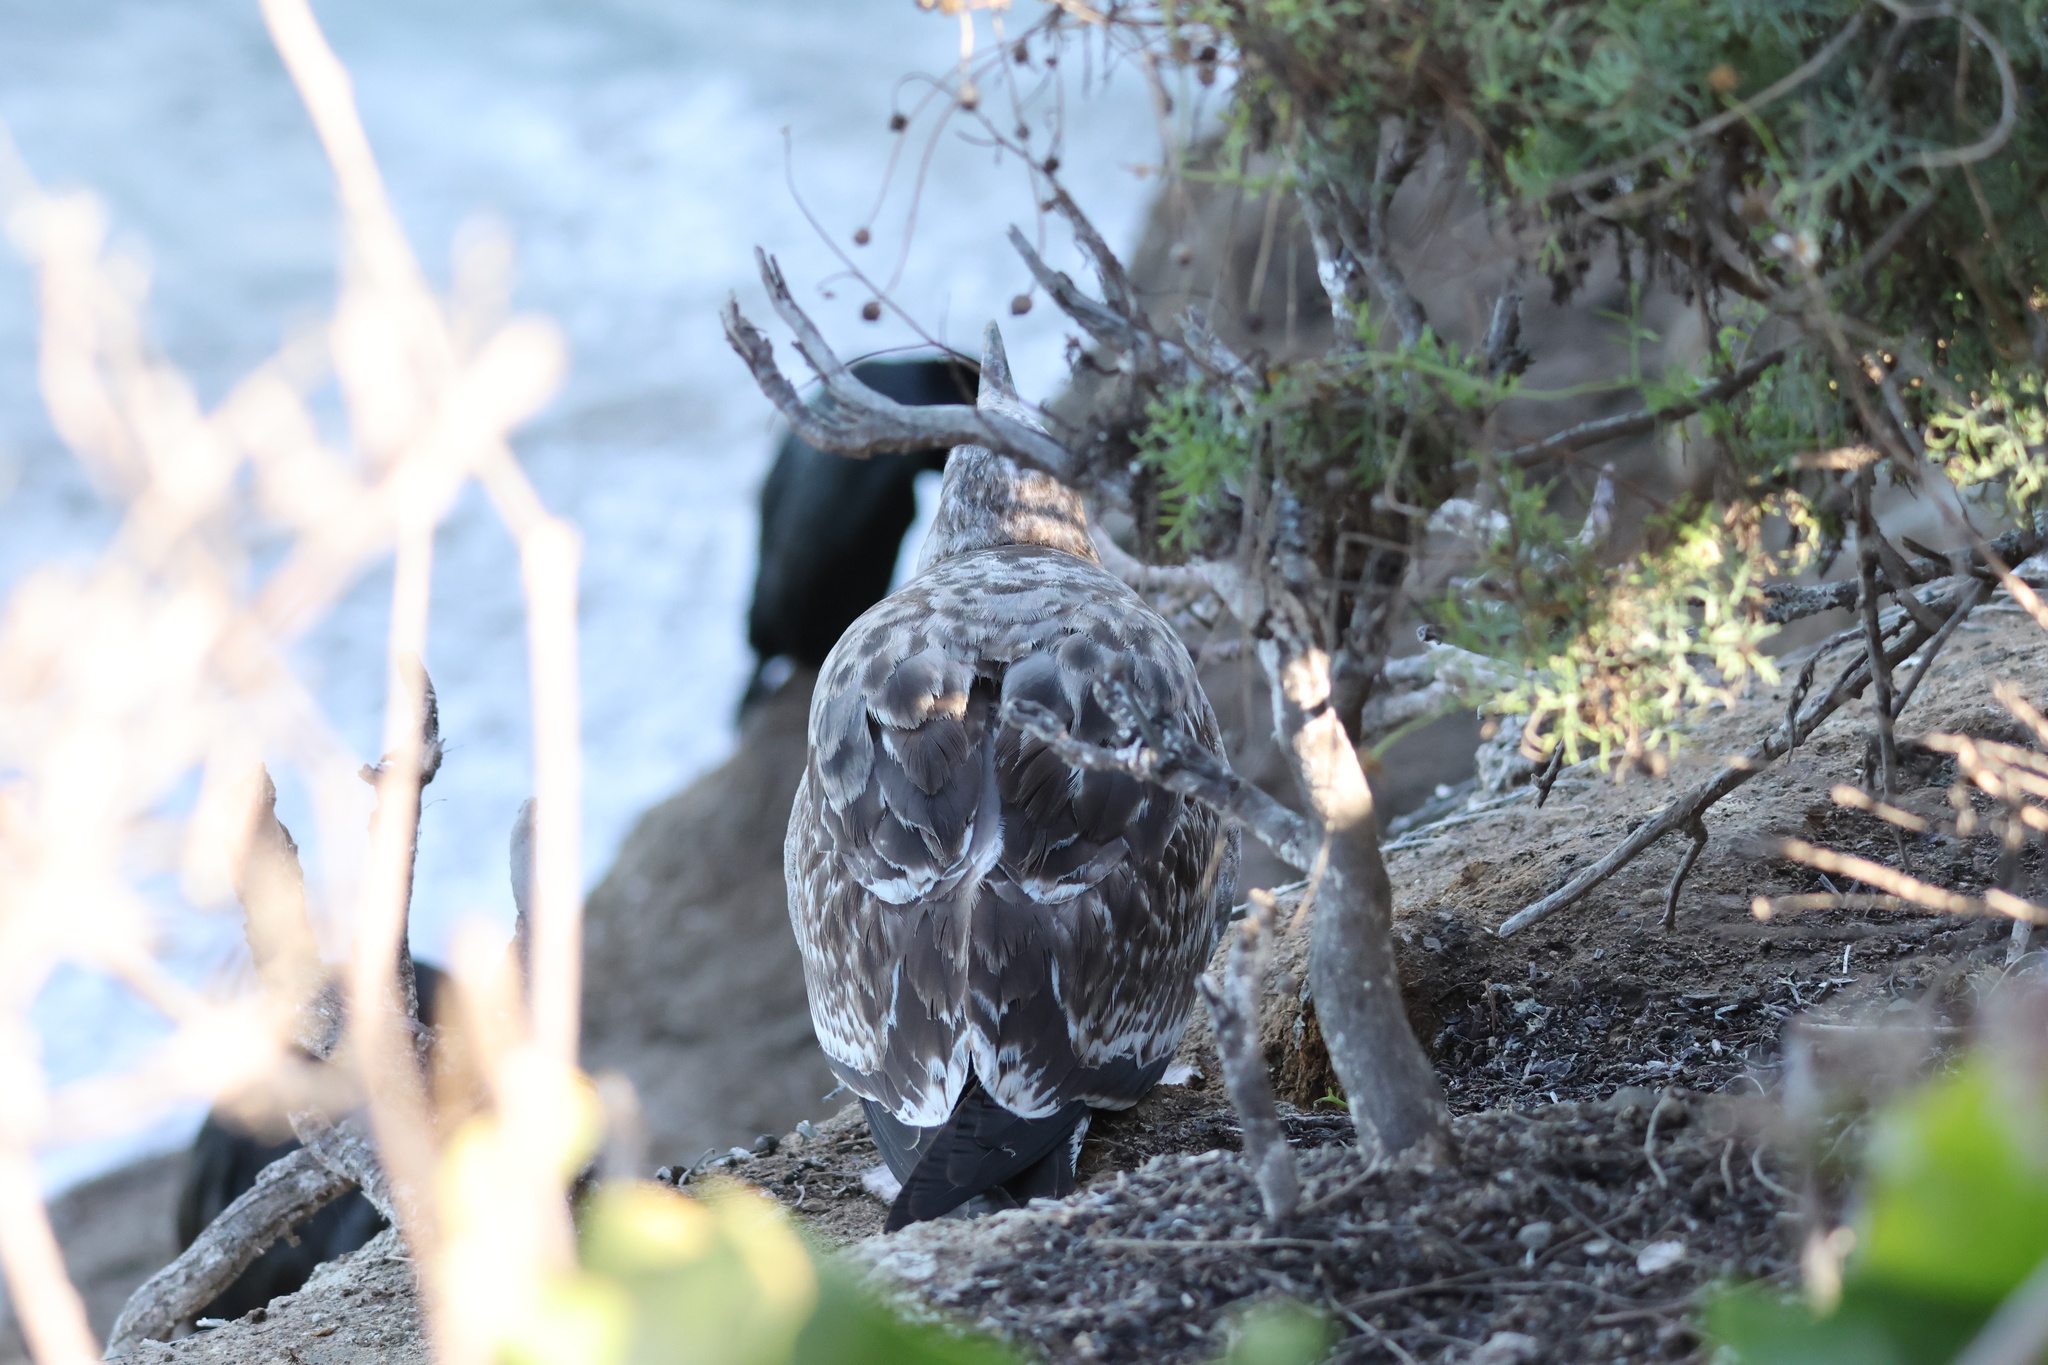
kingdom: Animalia
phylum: Chordata
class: Aves
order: Charadriiformes
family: Laridae
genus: Larus
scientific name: Larus occidentalis
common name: Western gull
